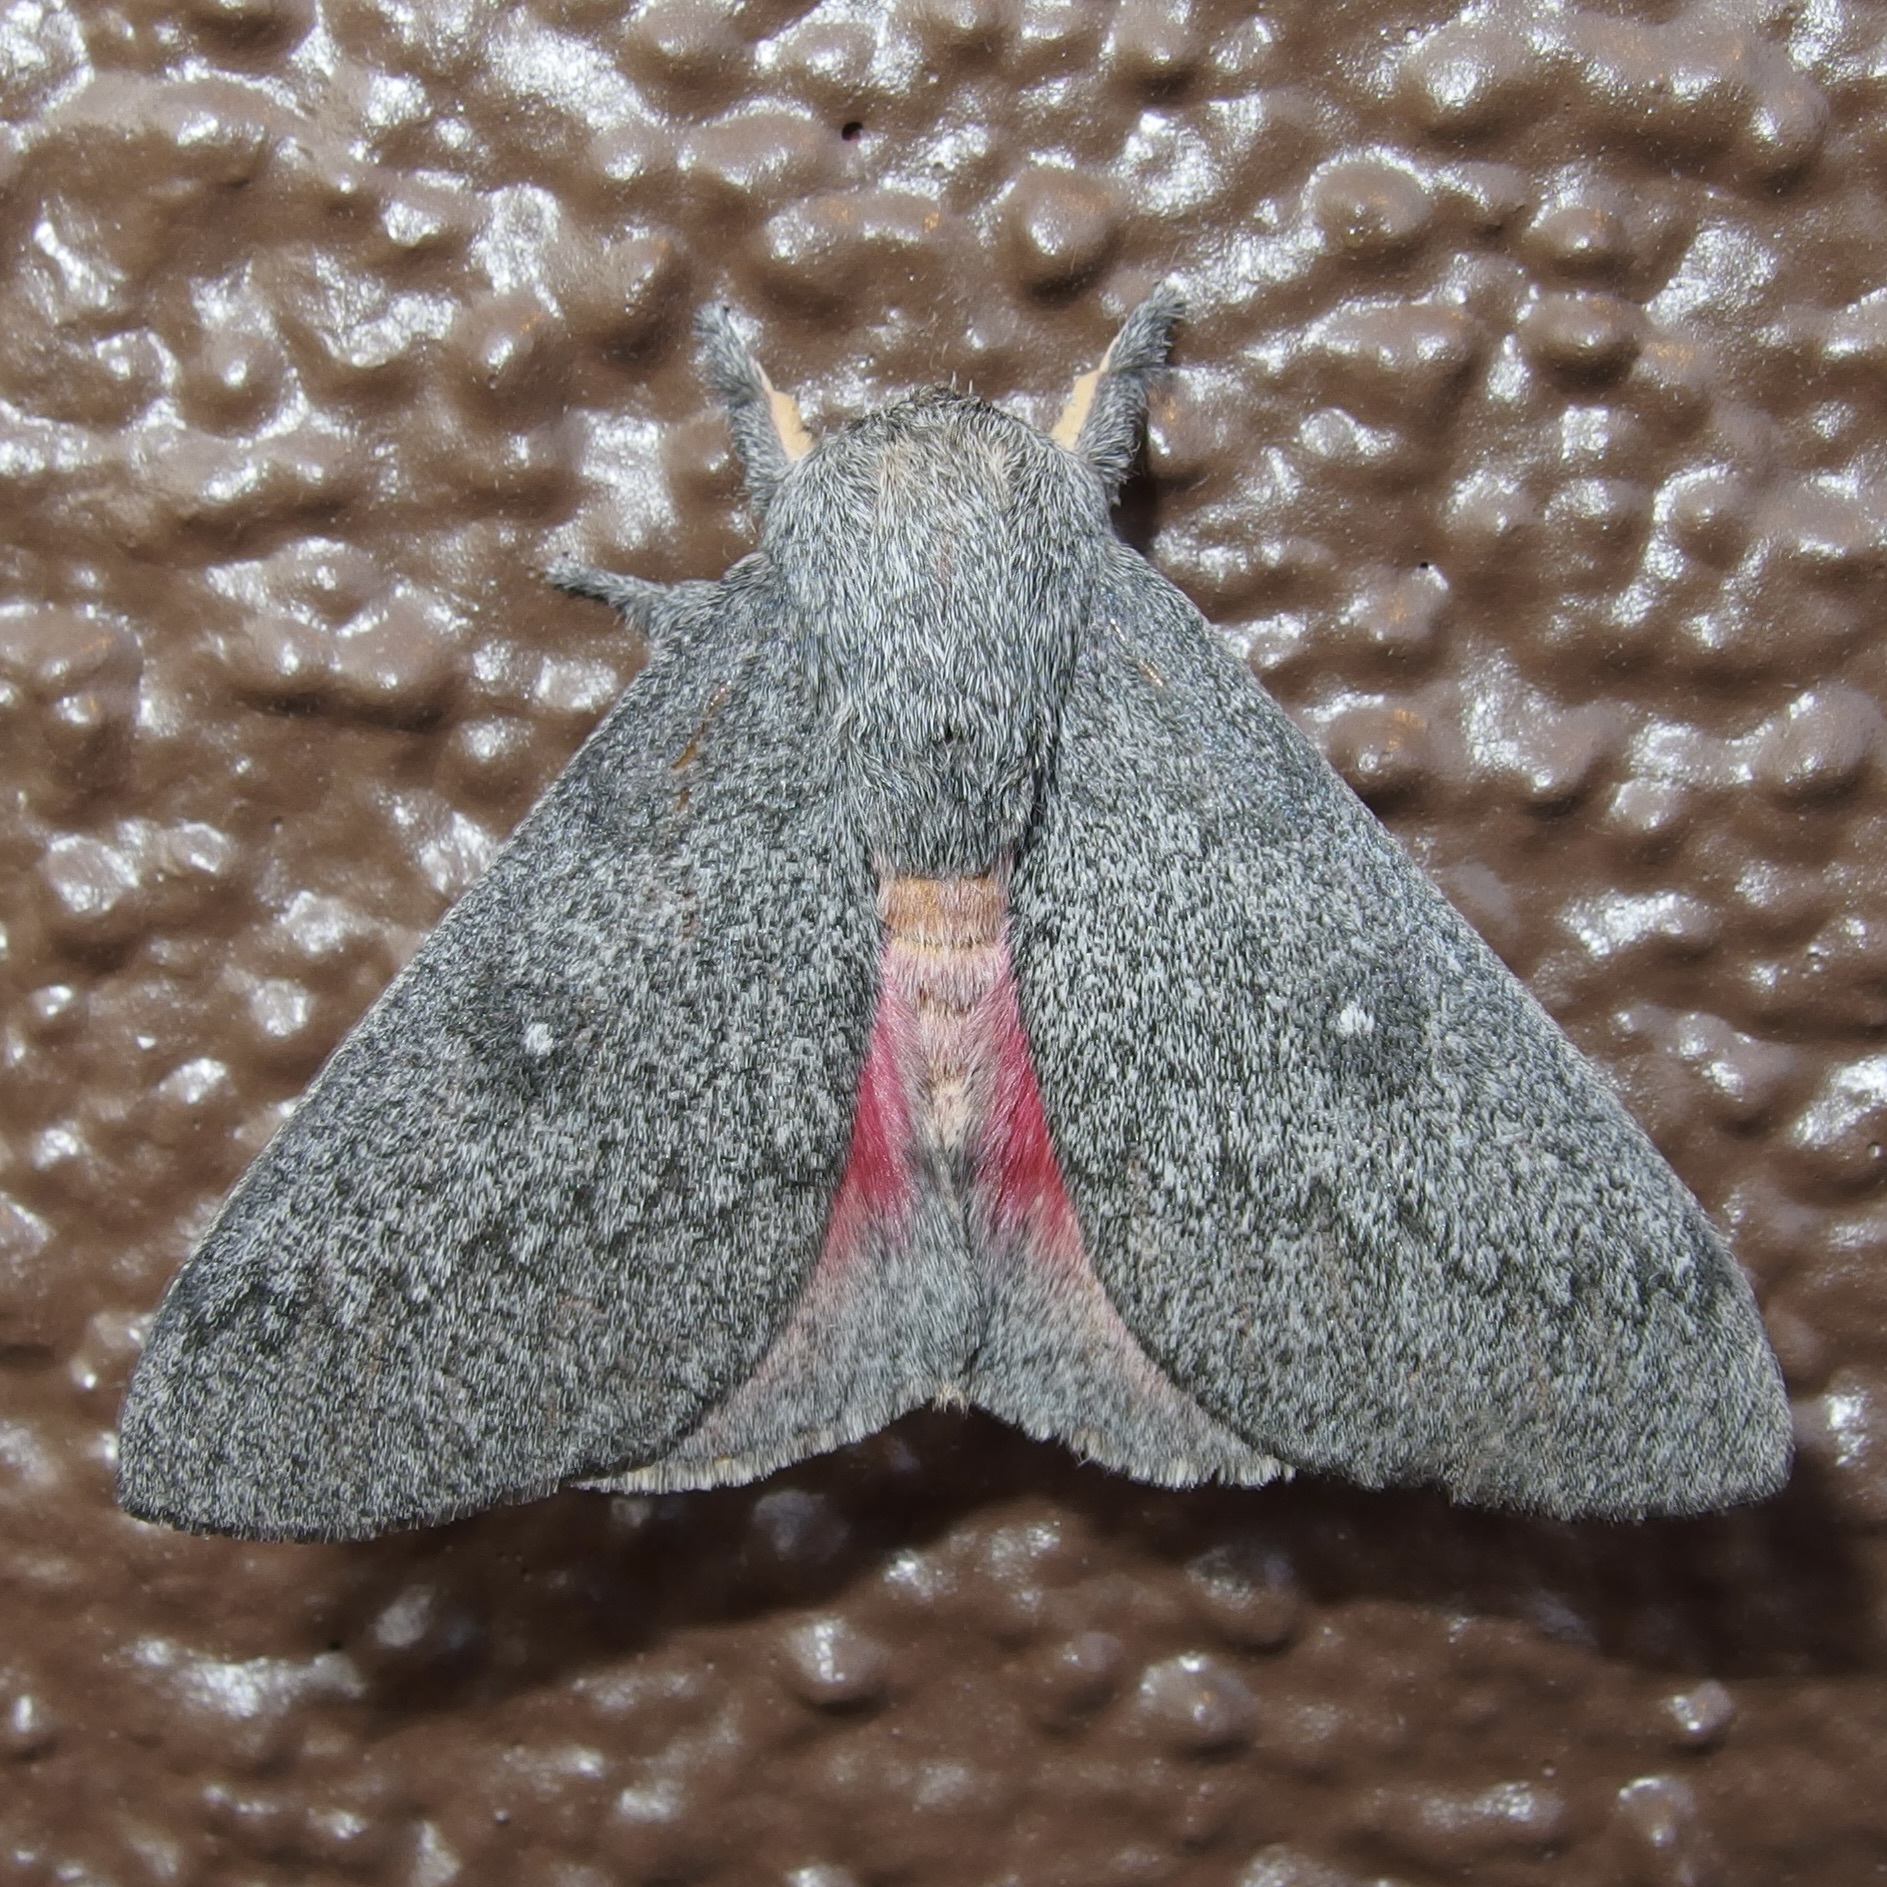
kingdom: Animalia
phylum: Arthropoda
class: Insecta
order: Lepidoptera
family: Saturniidae
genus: Syssphinx
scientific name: Syssphinx hubbardi
